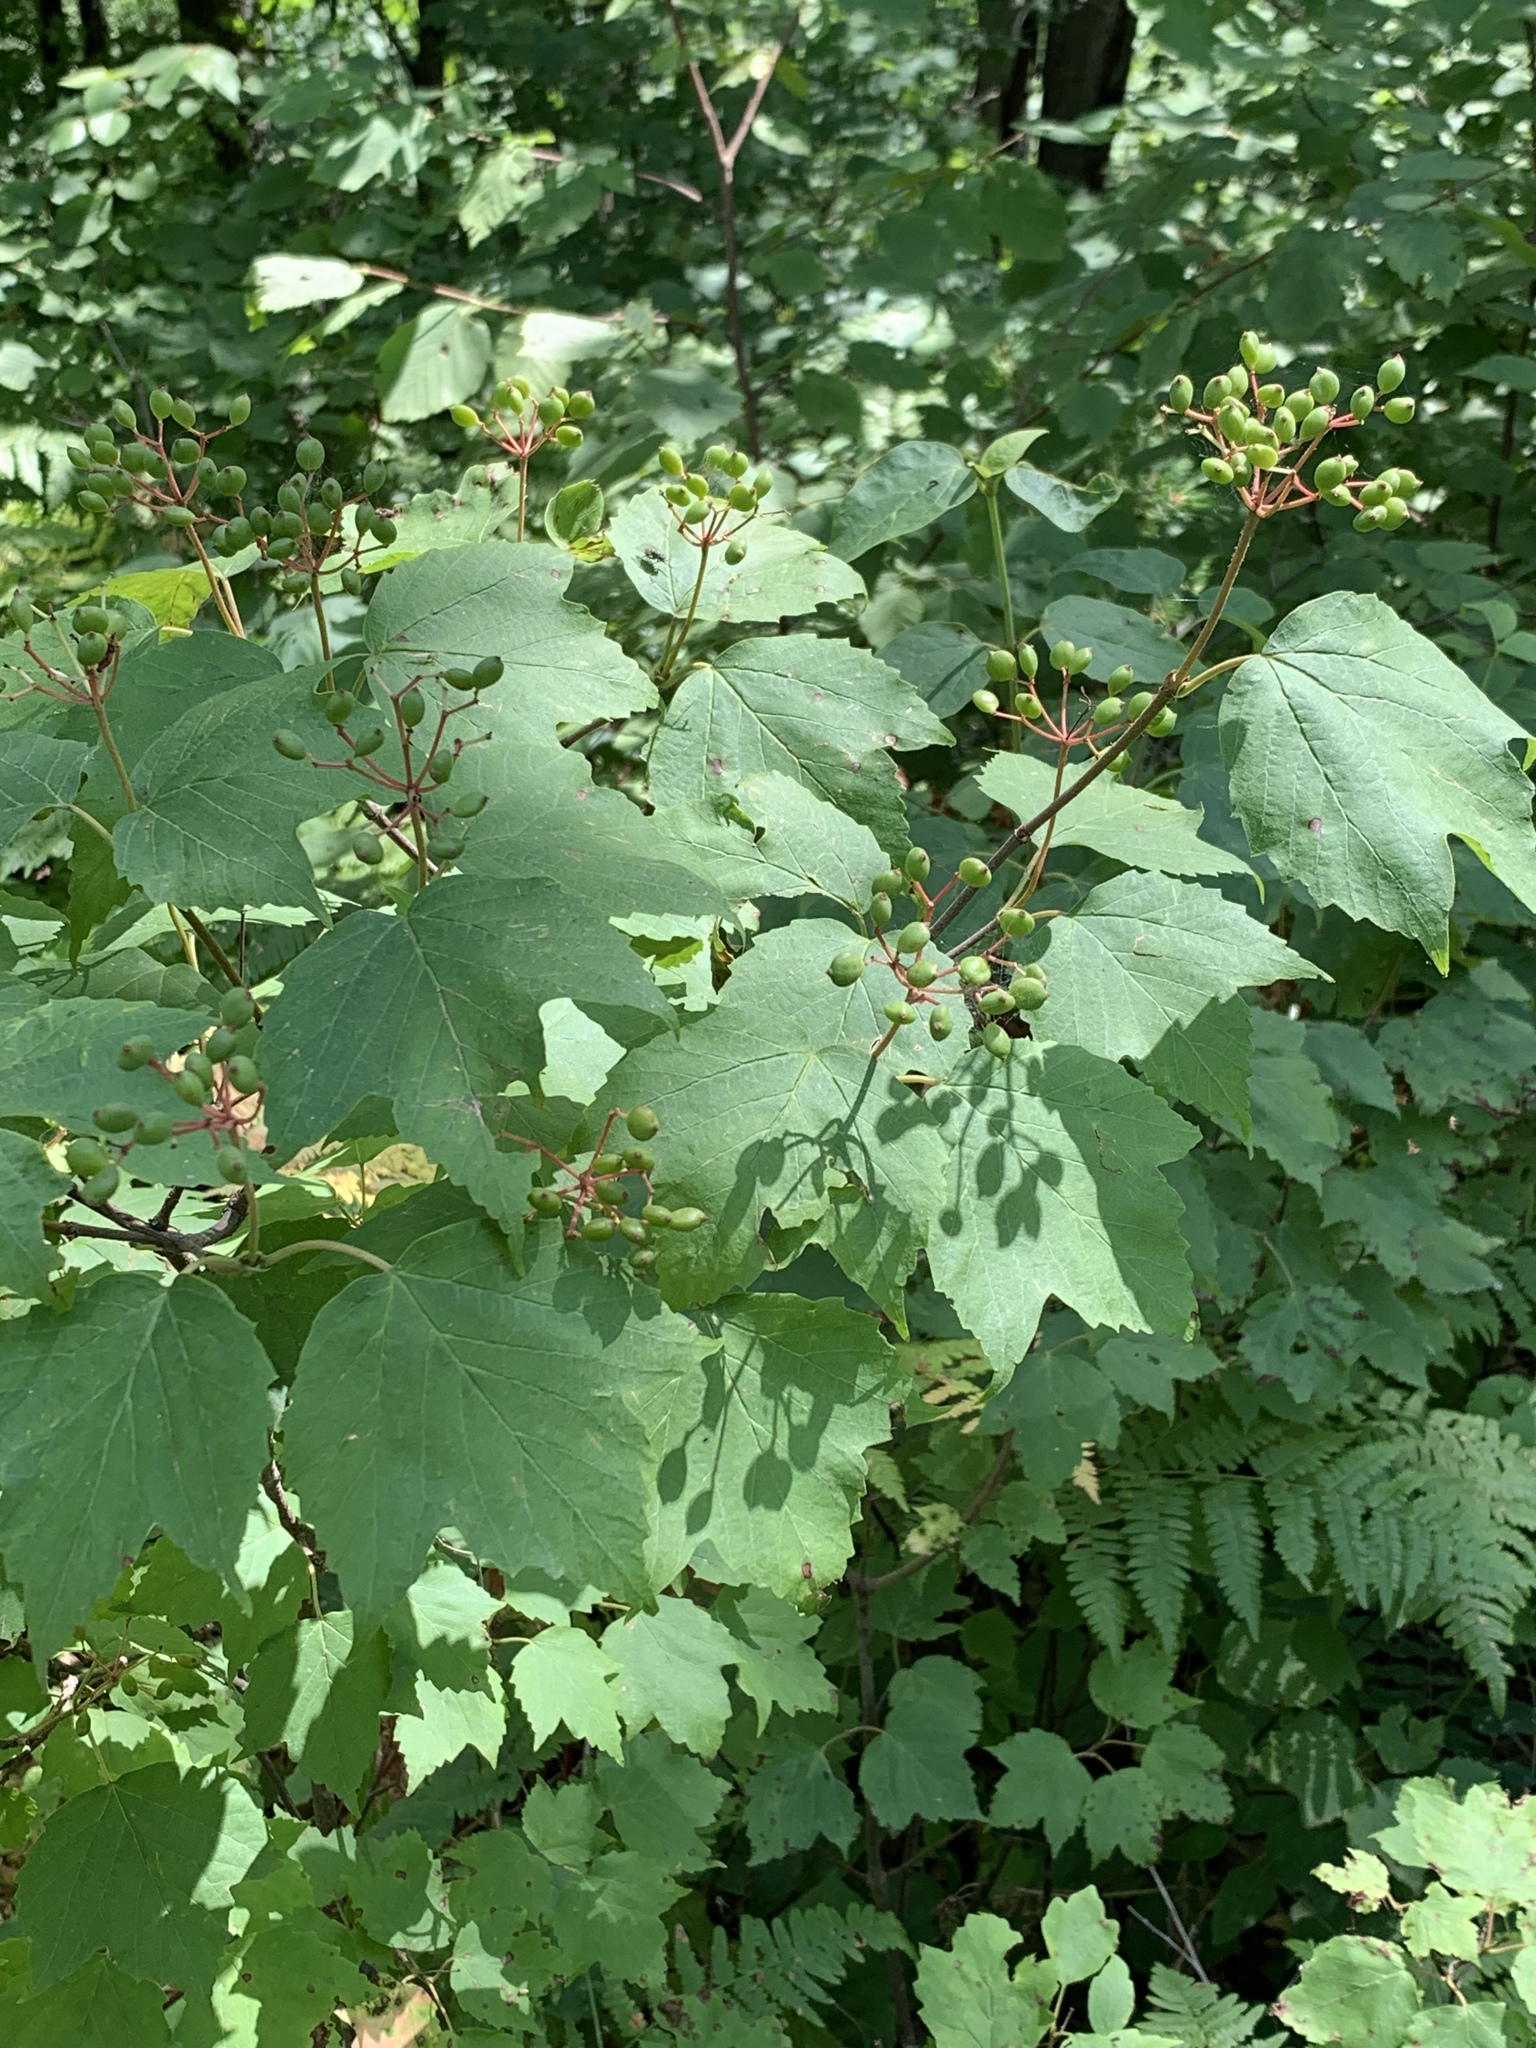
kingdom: Plantae
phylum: Tracheophyta
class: Magnoliopsida
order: Dipsacales
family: Viburnaceae
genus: Viburnum
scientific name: Viburnum acerifolium
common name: Dockmackie
